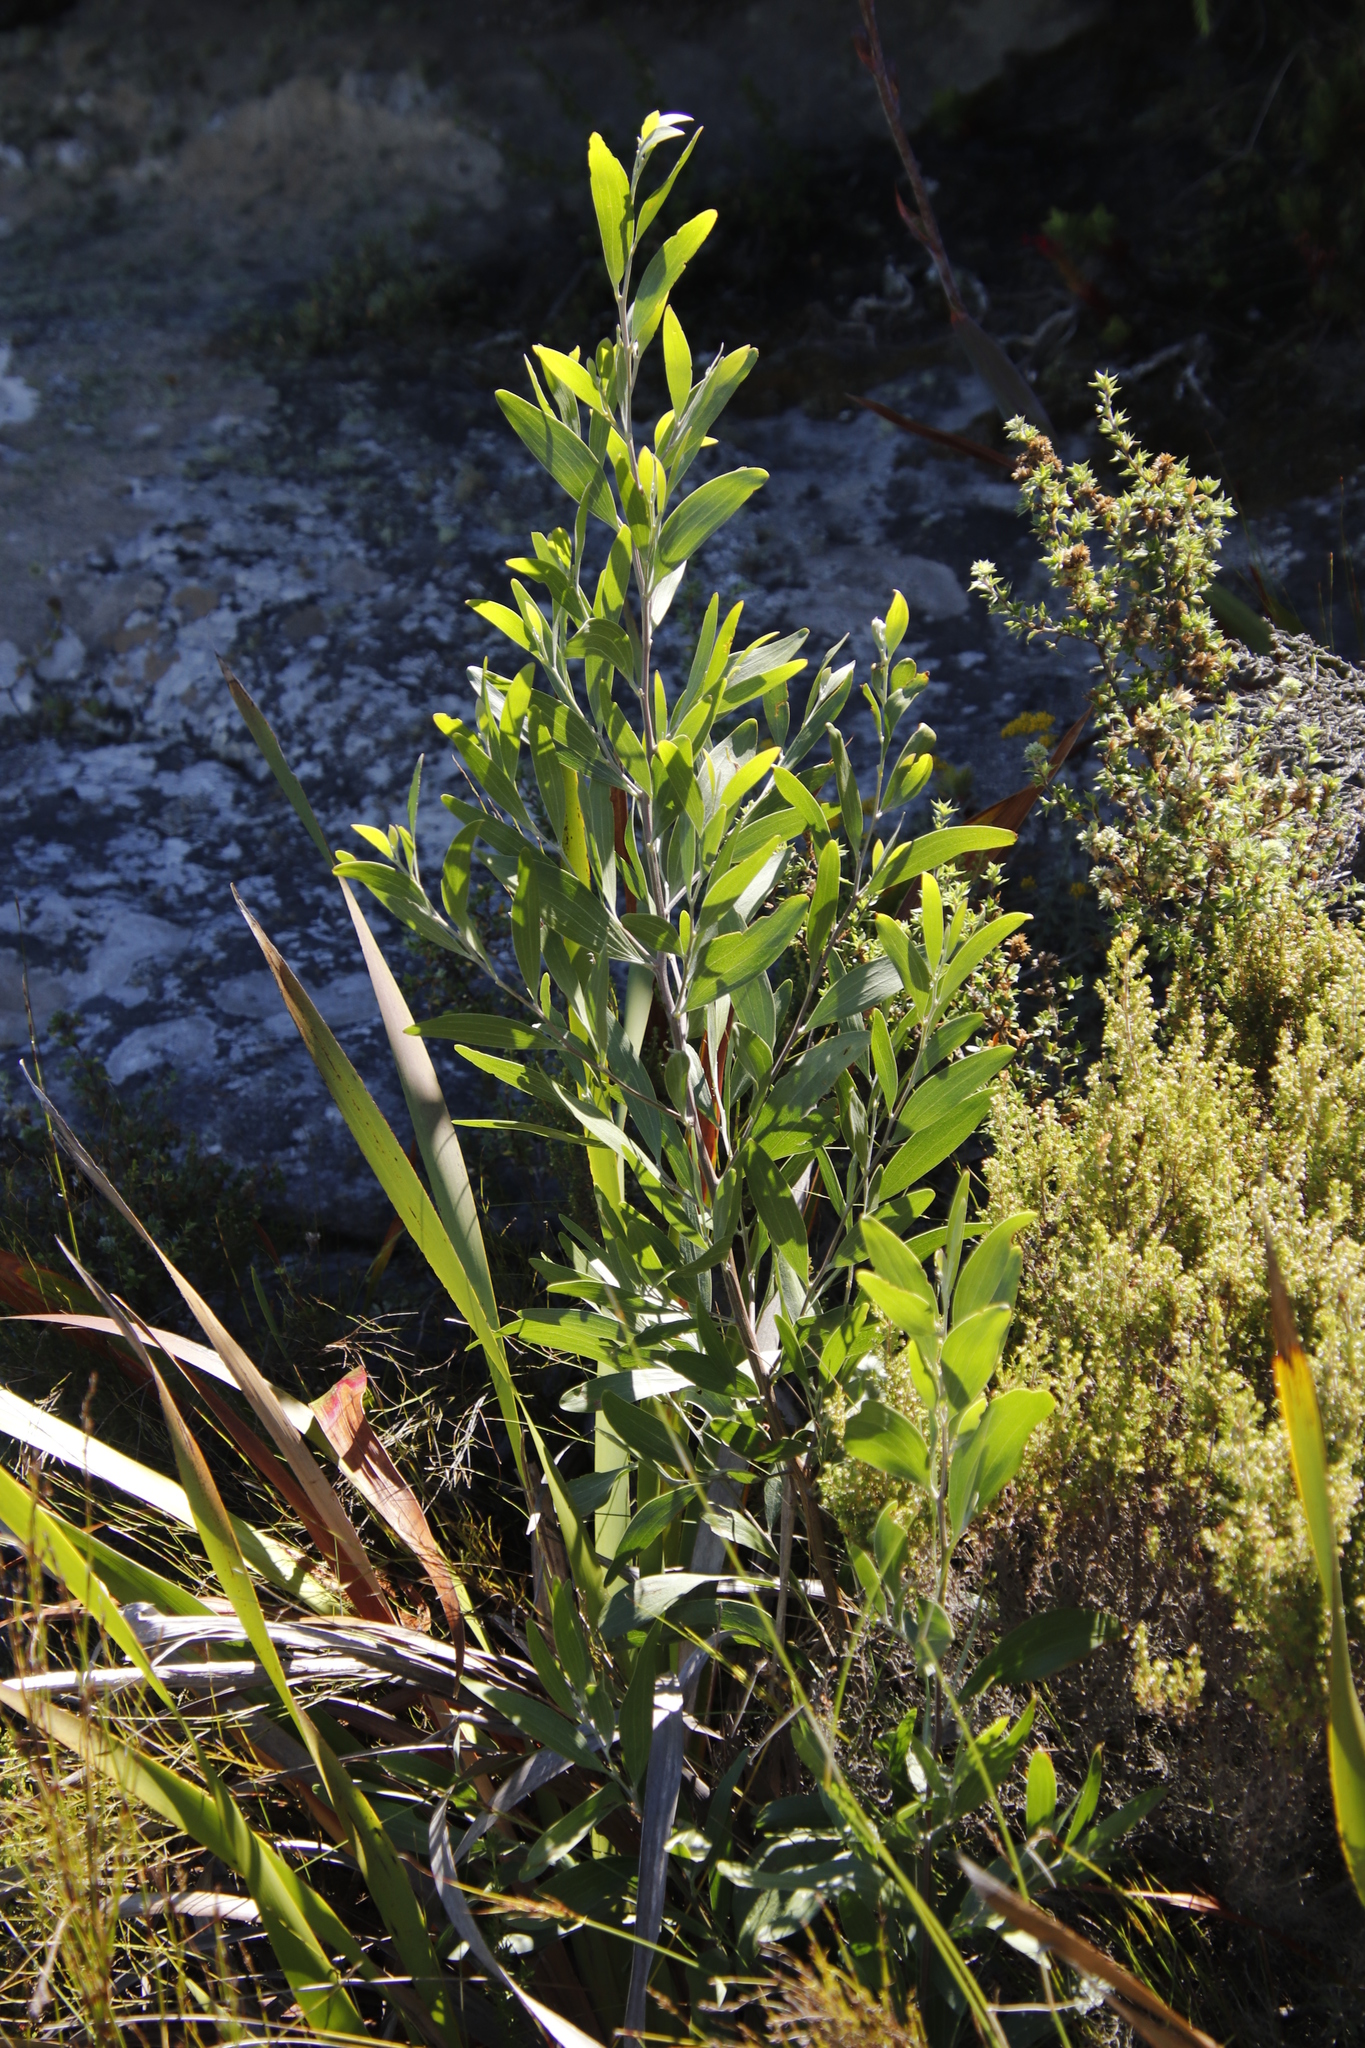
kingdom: Plantae
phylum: Tracheophyta
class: Magnoliopsida
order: Fabales
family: Fabaceae
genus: Acacia
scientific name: Acacia melanoxylon
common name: Blackwood
